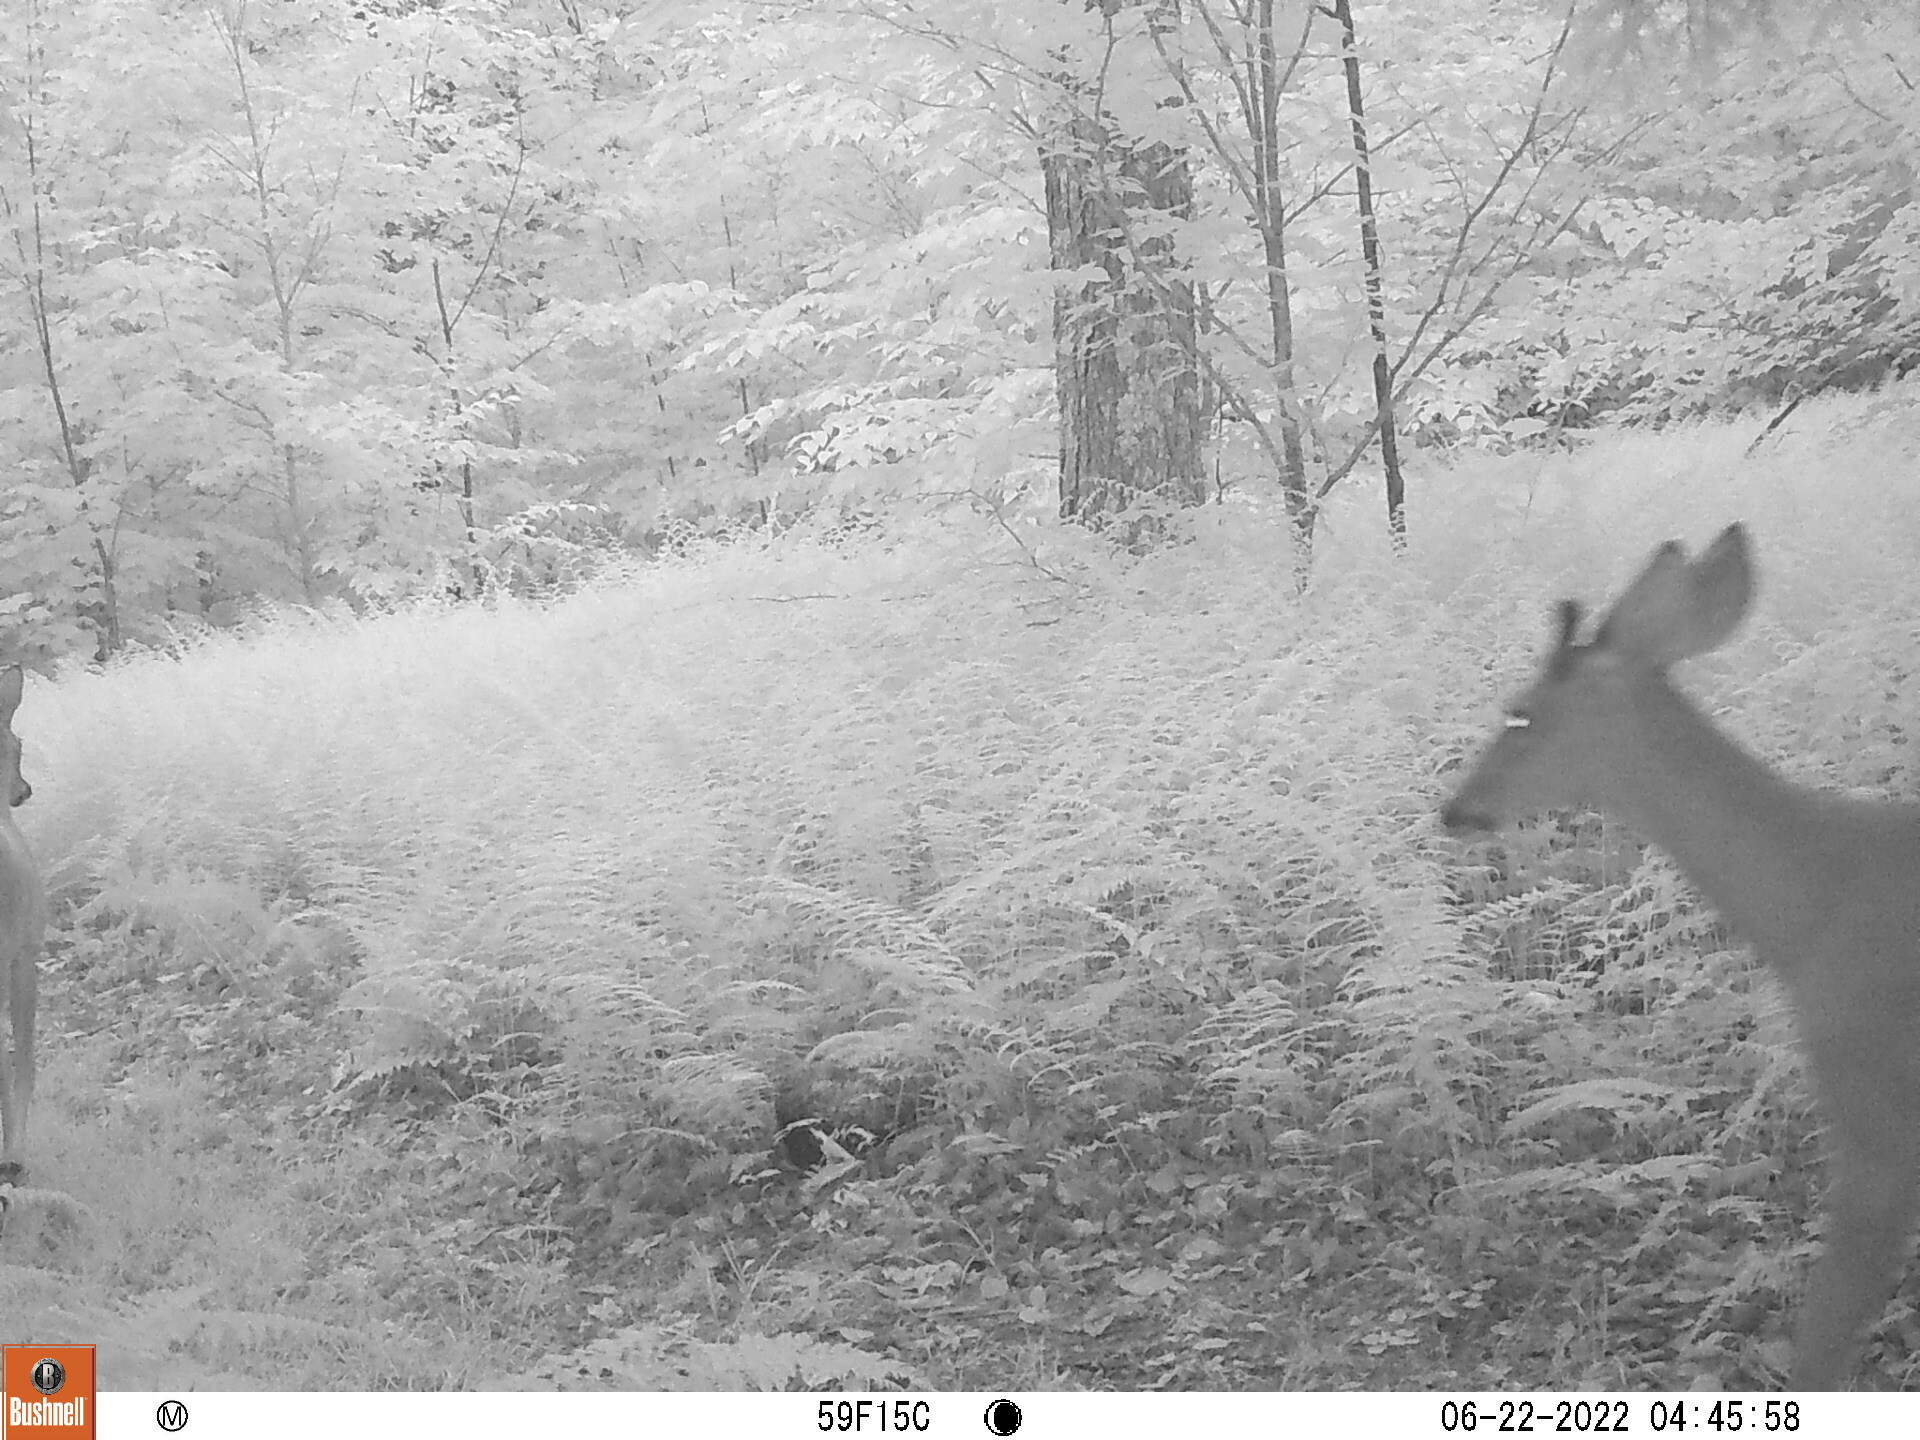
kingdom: Animalia
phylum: Chordata
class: Mammalia
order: Artiodactyla
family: Cervidae
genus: Odocoileus
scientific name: Odocoileus virginianus
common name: White-tailed deer
